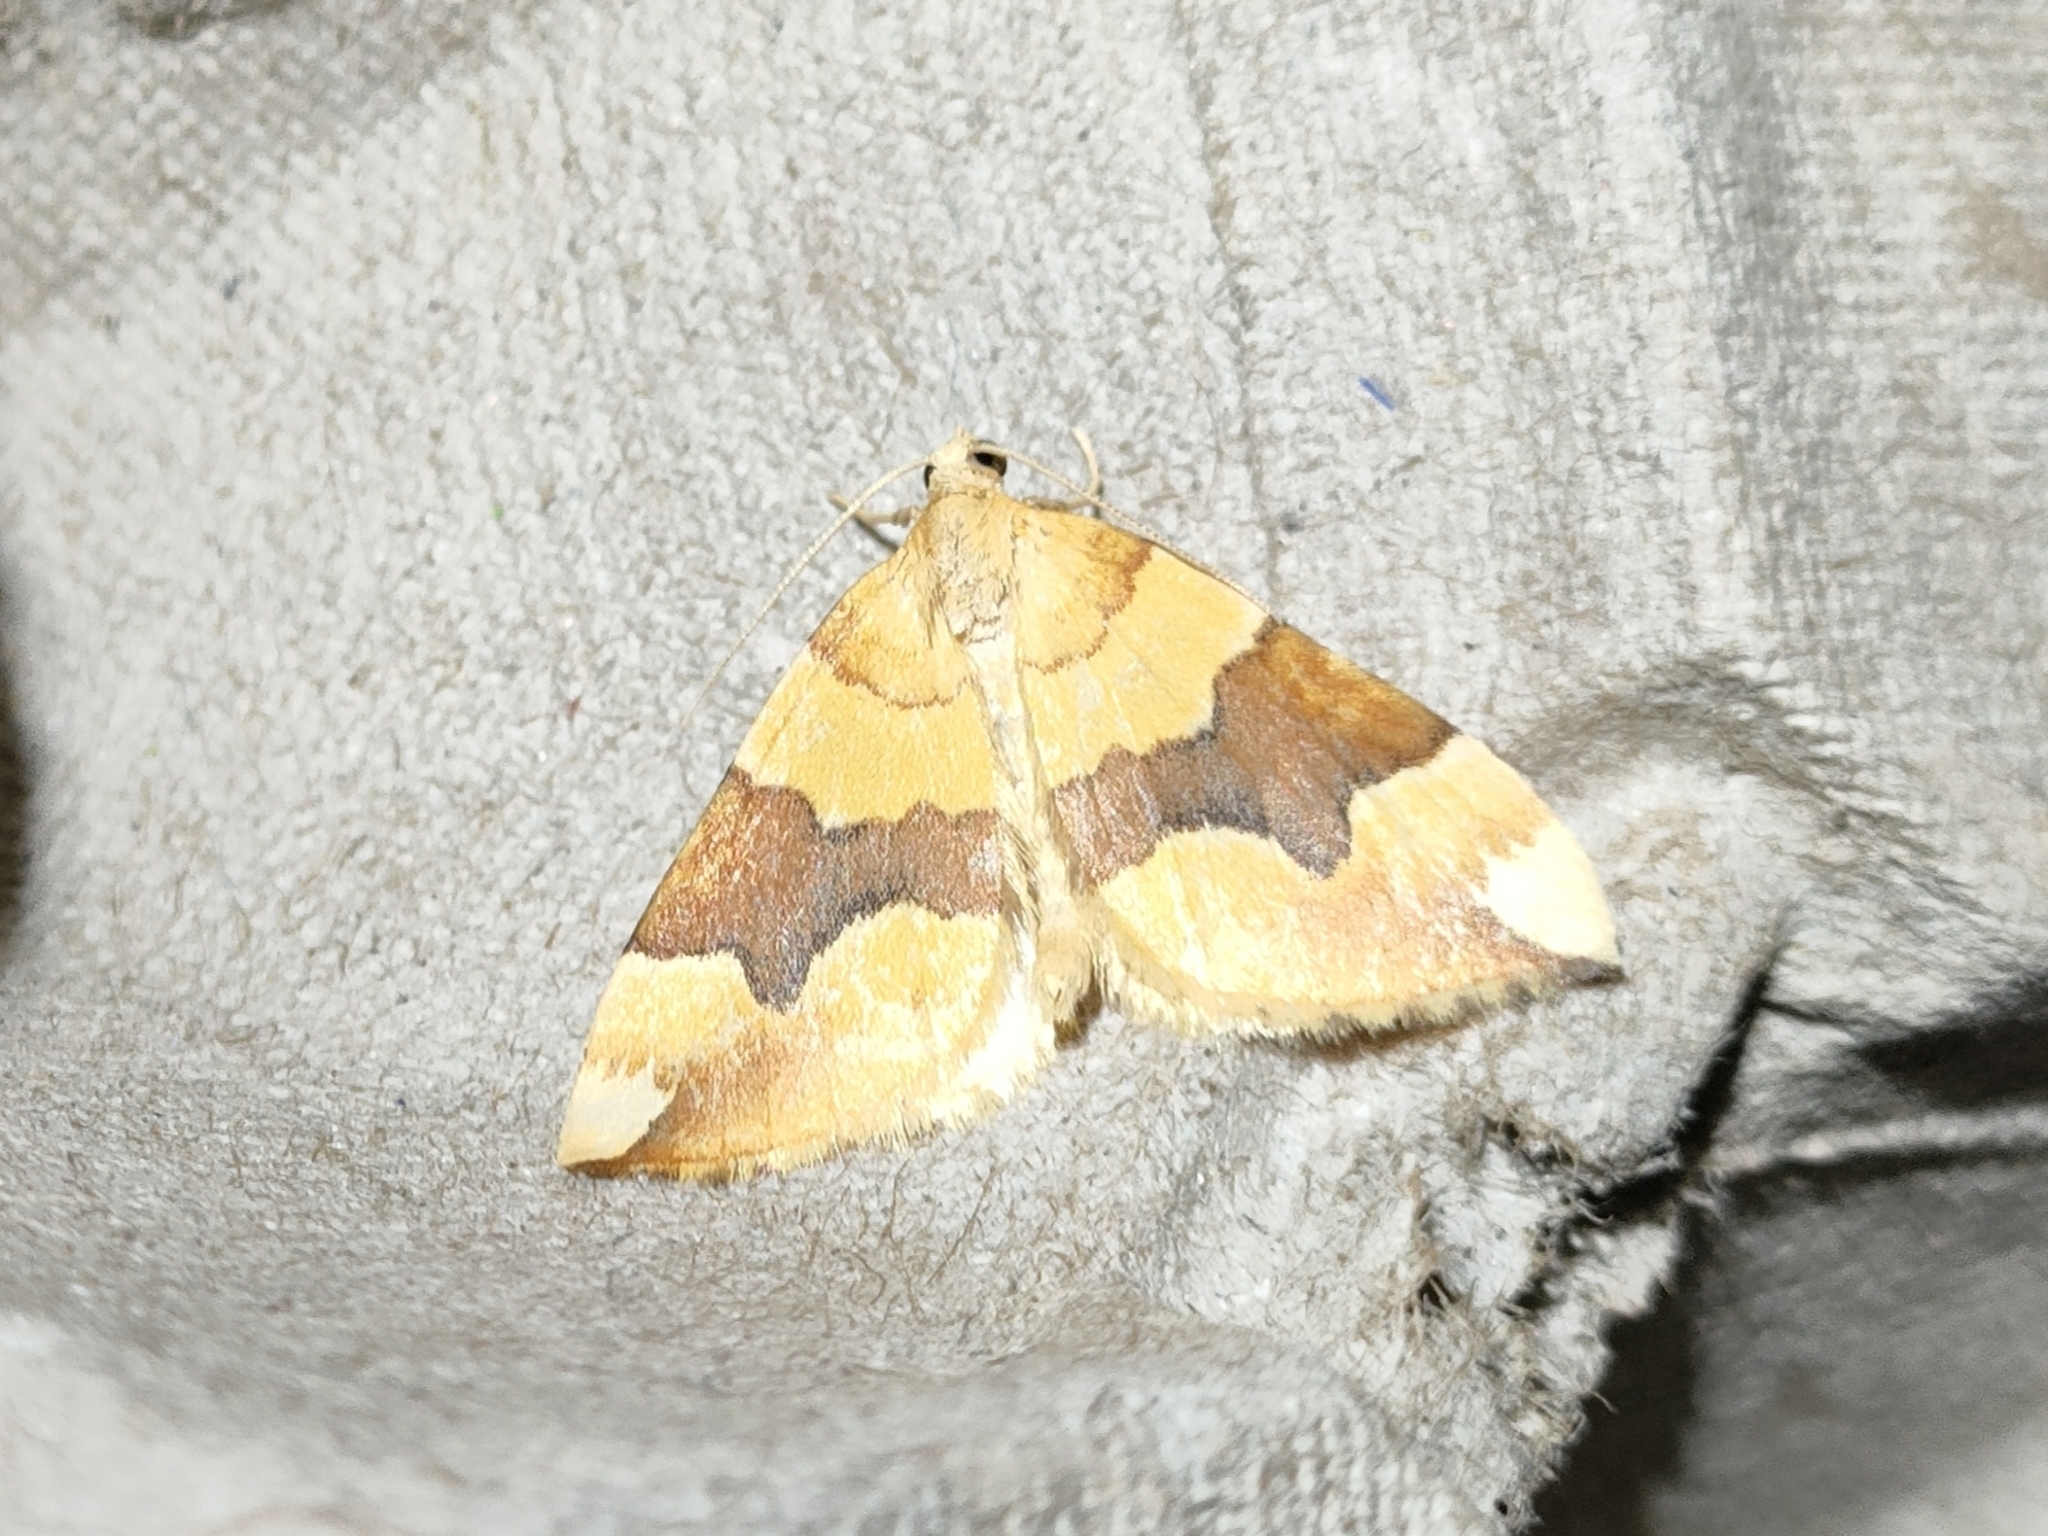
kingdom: Animalia
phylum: Arthropoda
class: Insecta
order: Lepidoptera
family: Geometridae
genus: Cidaria
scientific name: Cidaria fulvata
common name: Barred yellow
